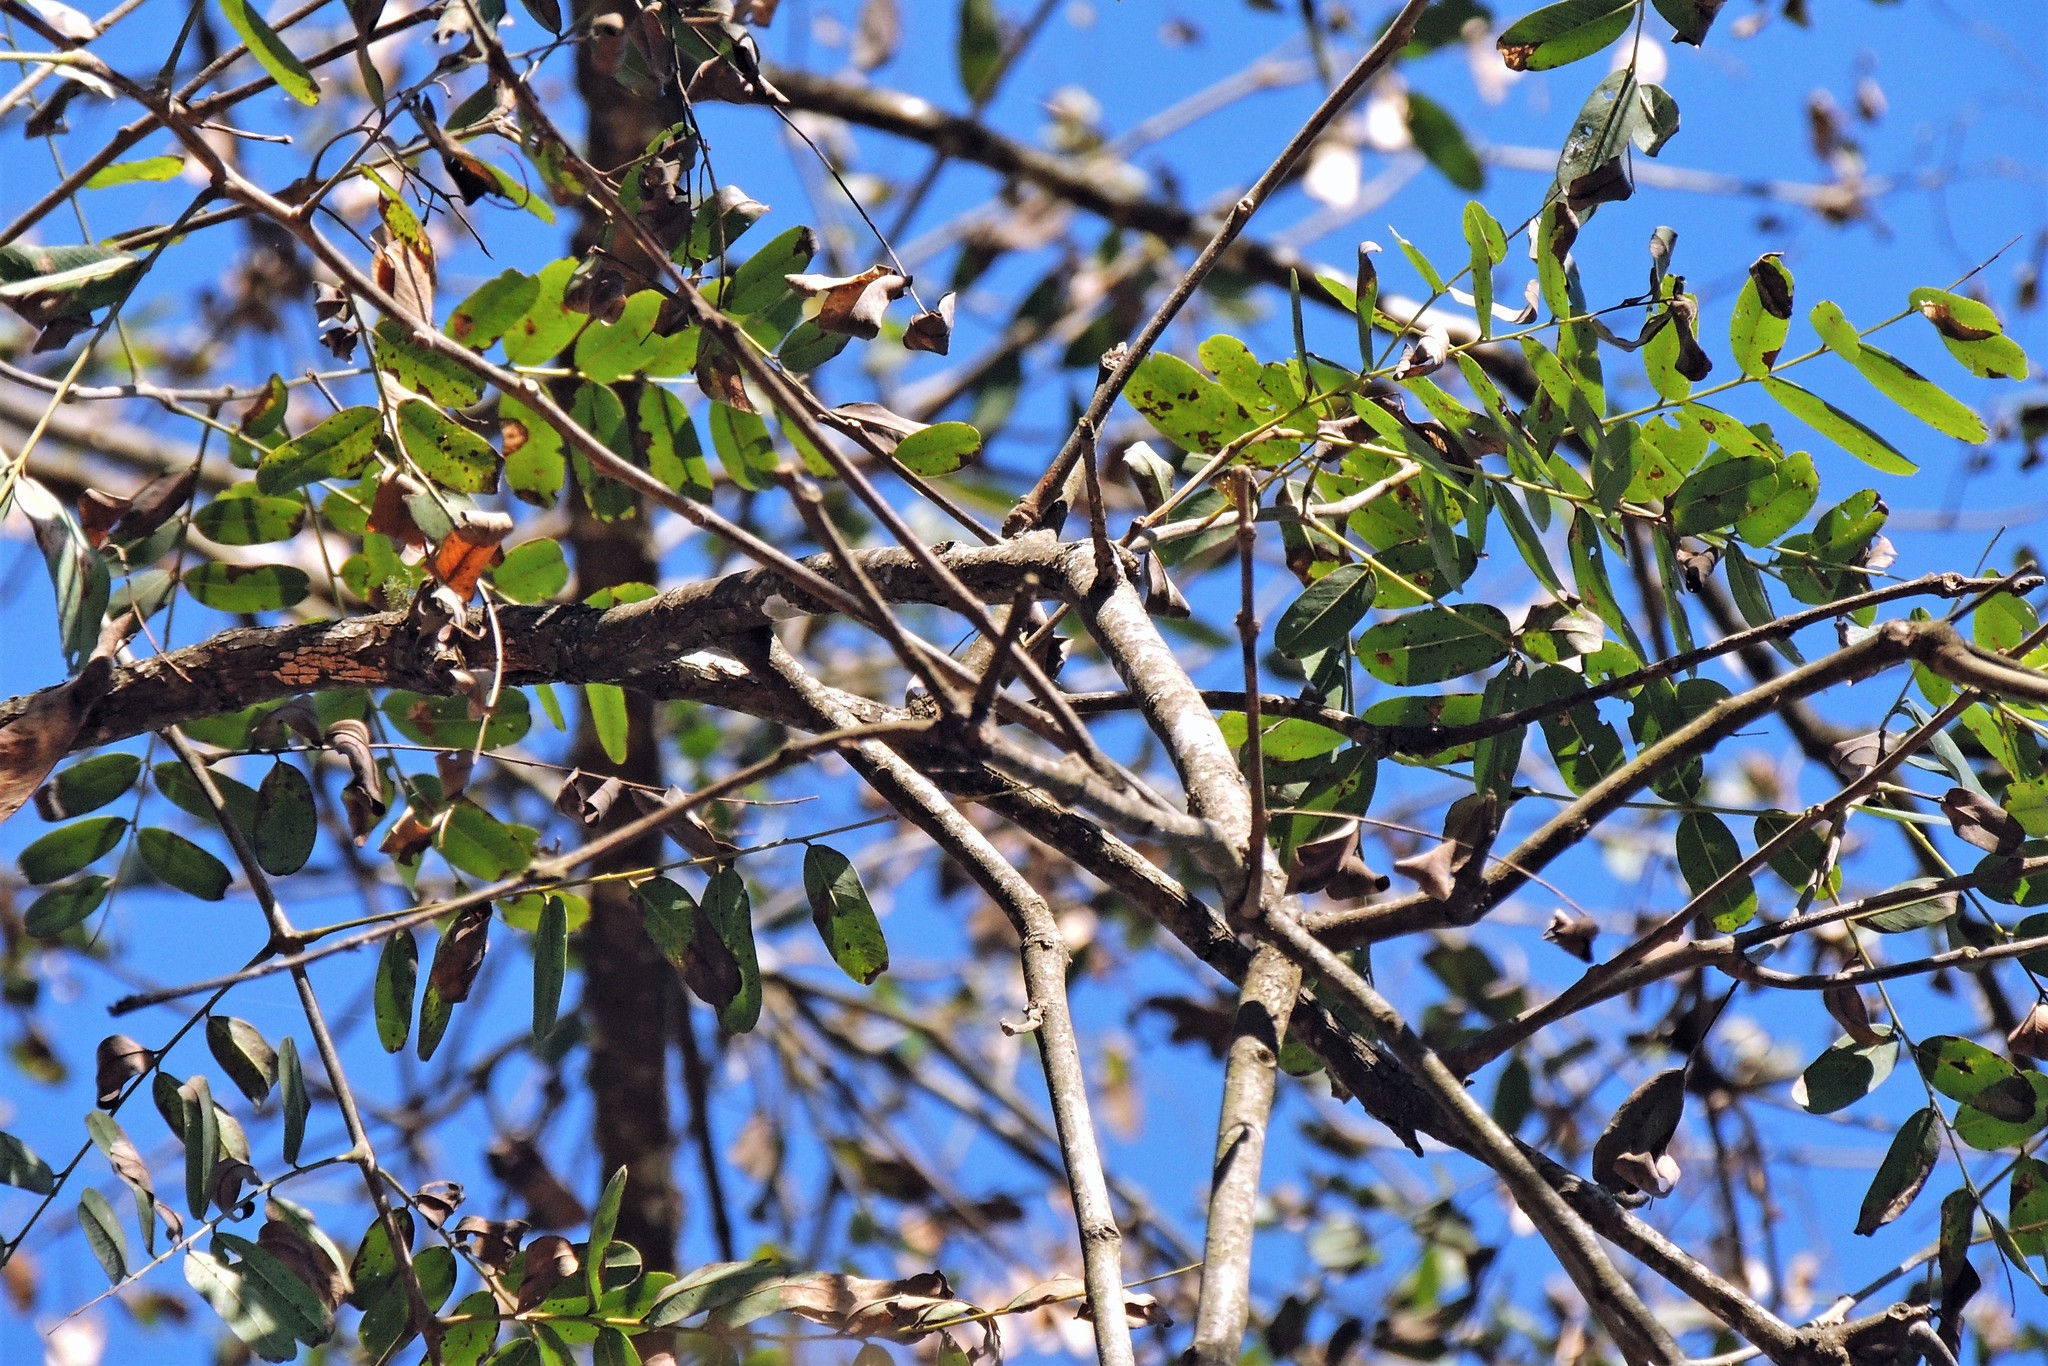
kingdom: Plantae
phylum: Tracheophyta
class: Magnoliopsida
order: Fabales
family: Fabaceae
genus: Pterogyne
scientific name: Pterogyne nitens
